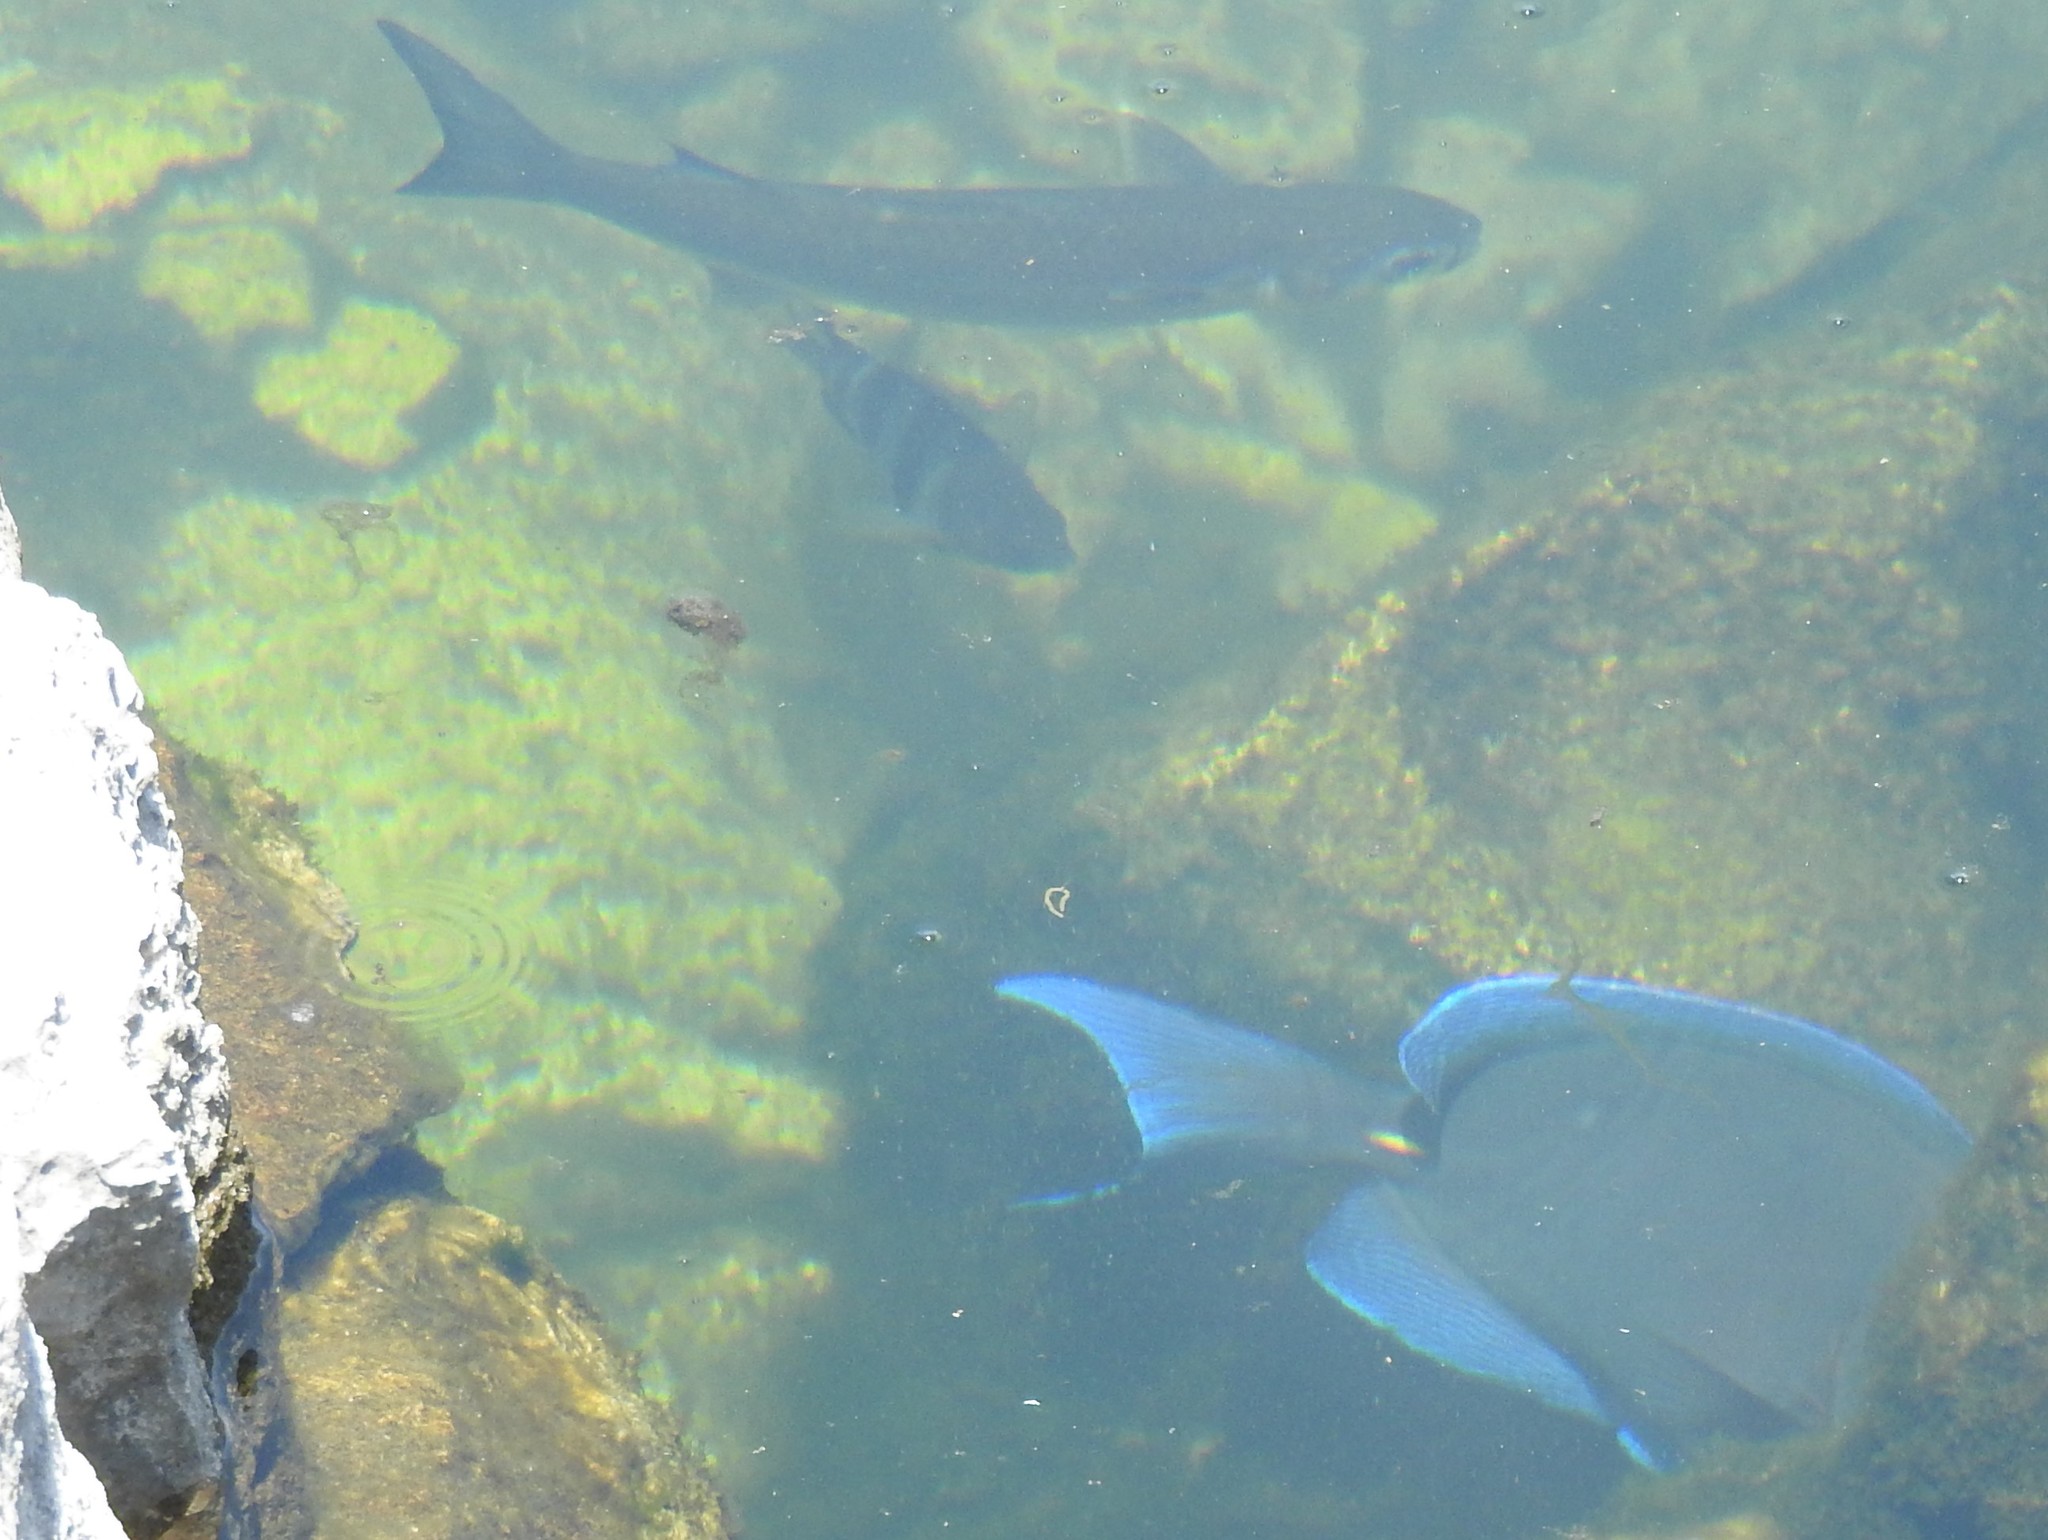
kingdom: Animalia
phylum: Chordata
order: Perciformes
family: Pomacentridae
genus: Abudefduf
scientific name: Abudefduf saxatilis
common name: Sergeant major
